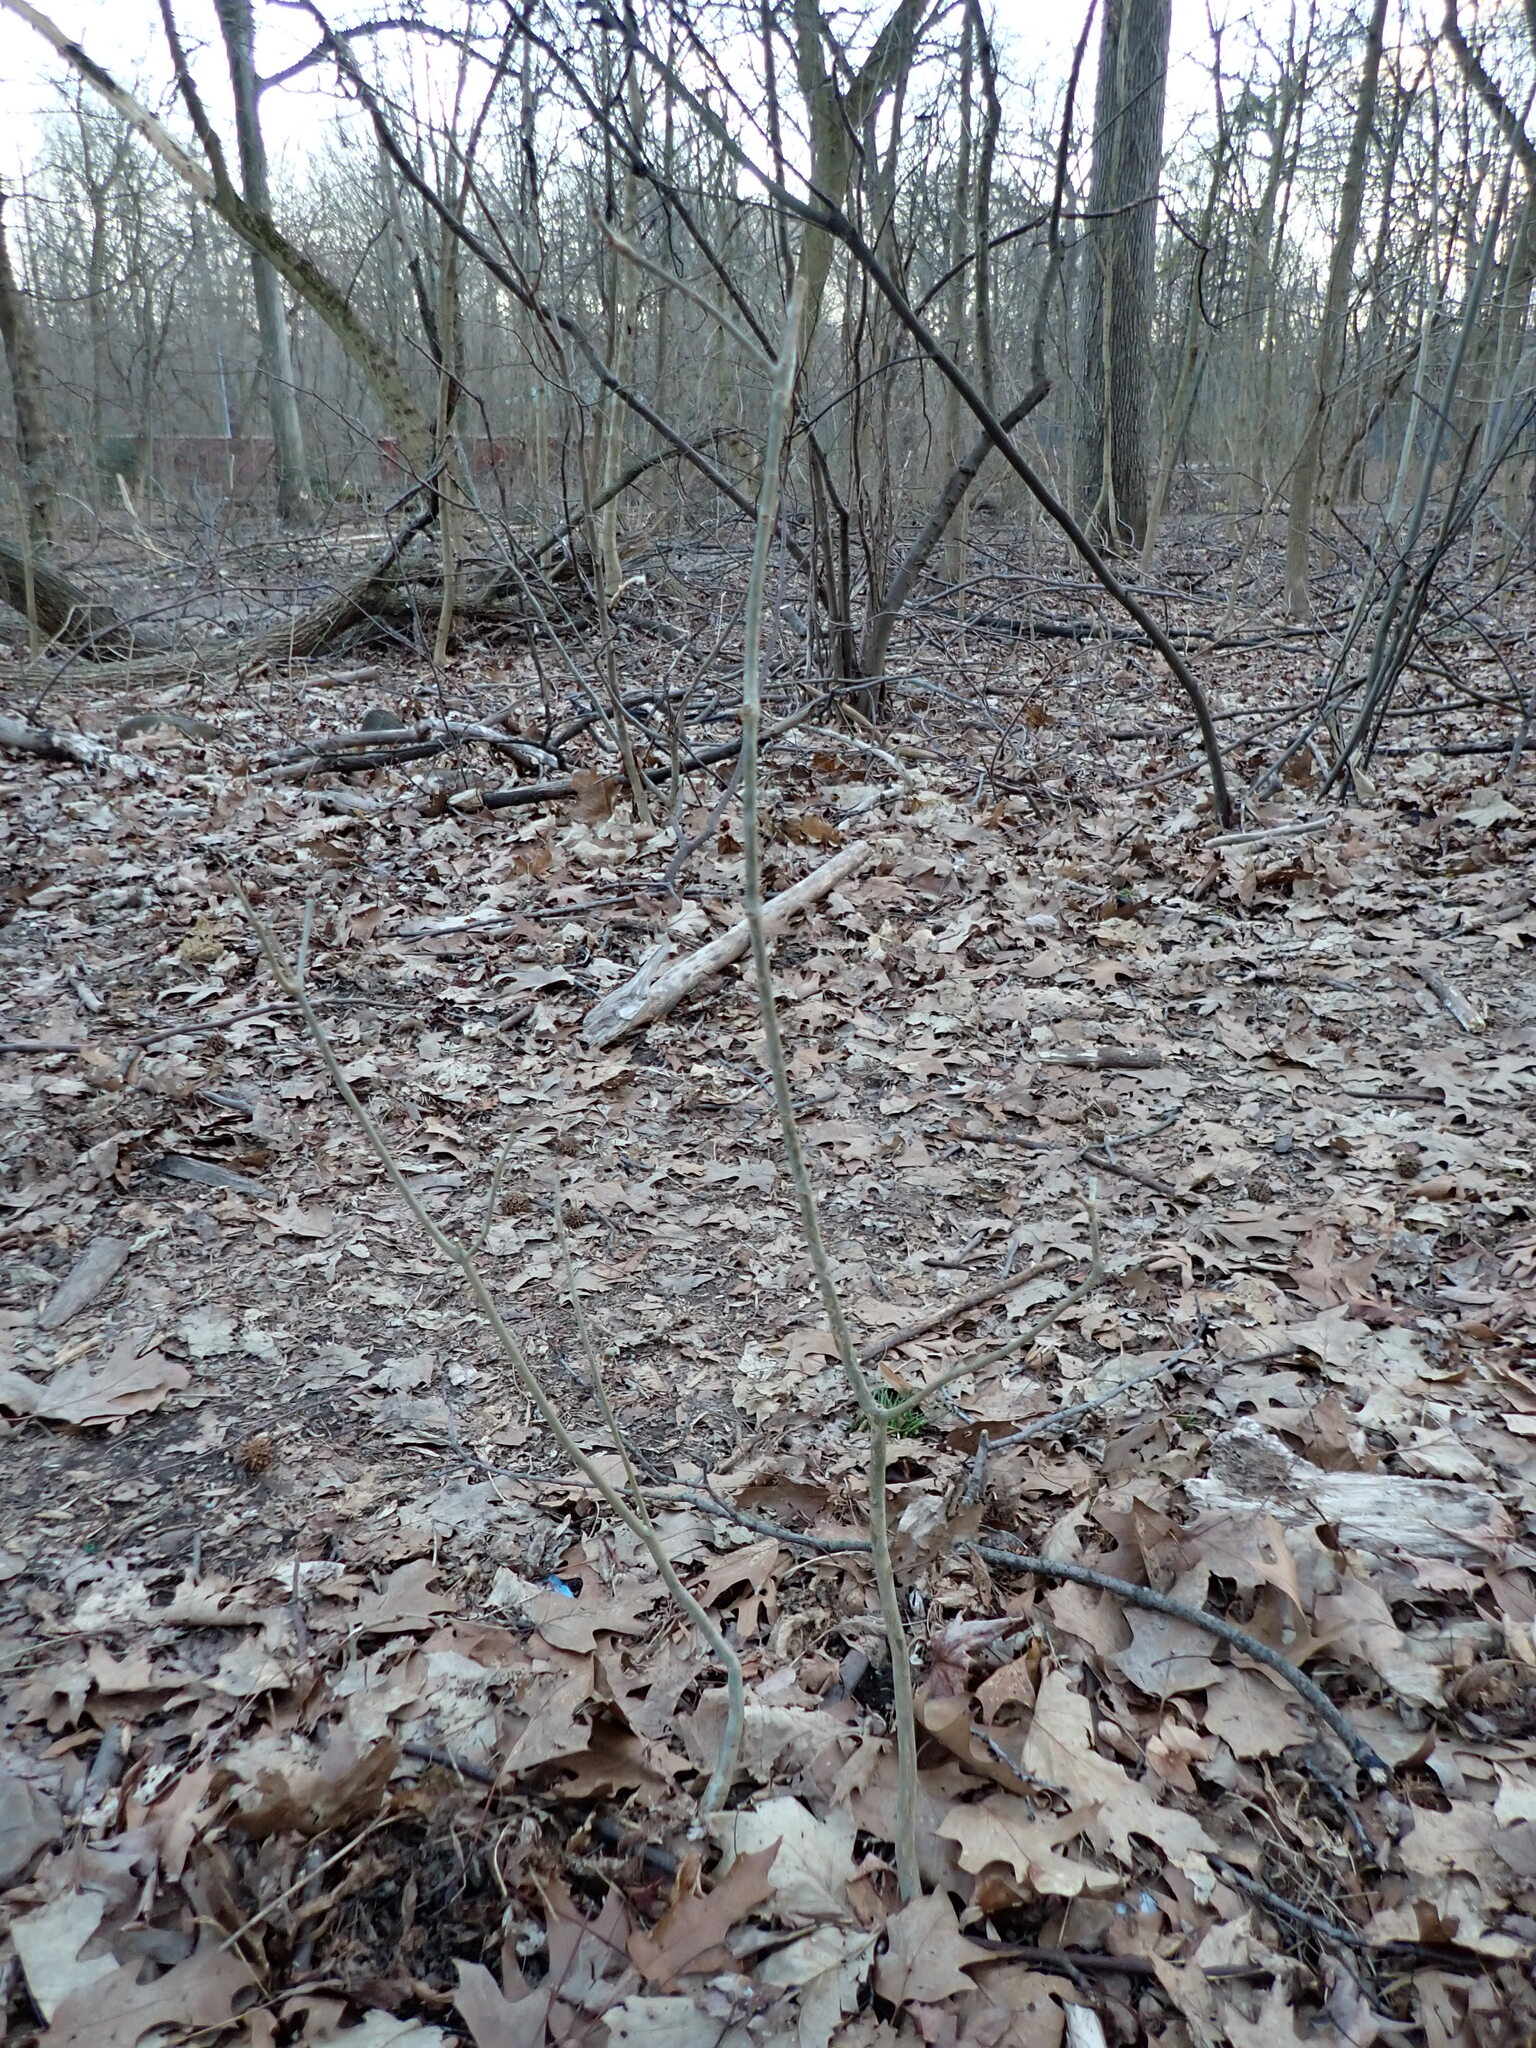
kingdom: Plantae
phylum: Tracheophyta
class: Magnoliopsida
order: Lamiales
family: Oleaceae
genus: Fraxinus
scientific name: Fraxinus americana
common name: White ash
